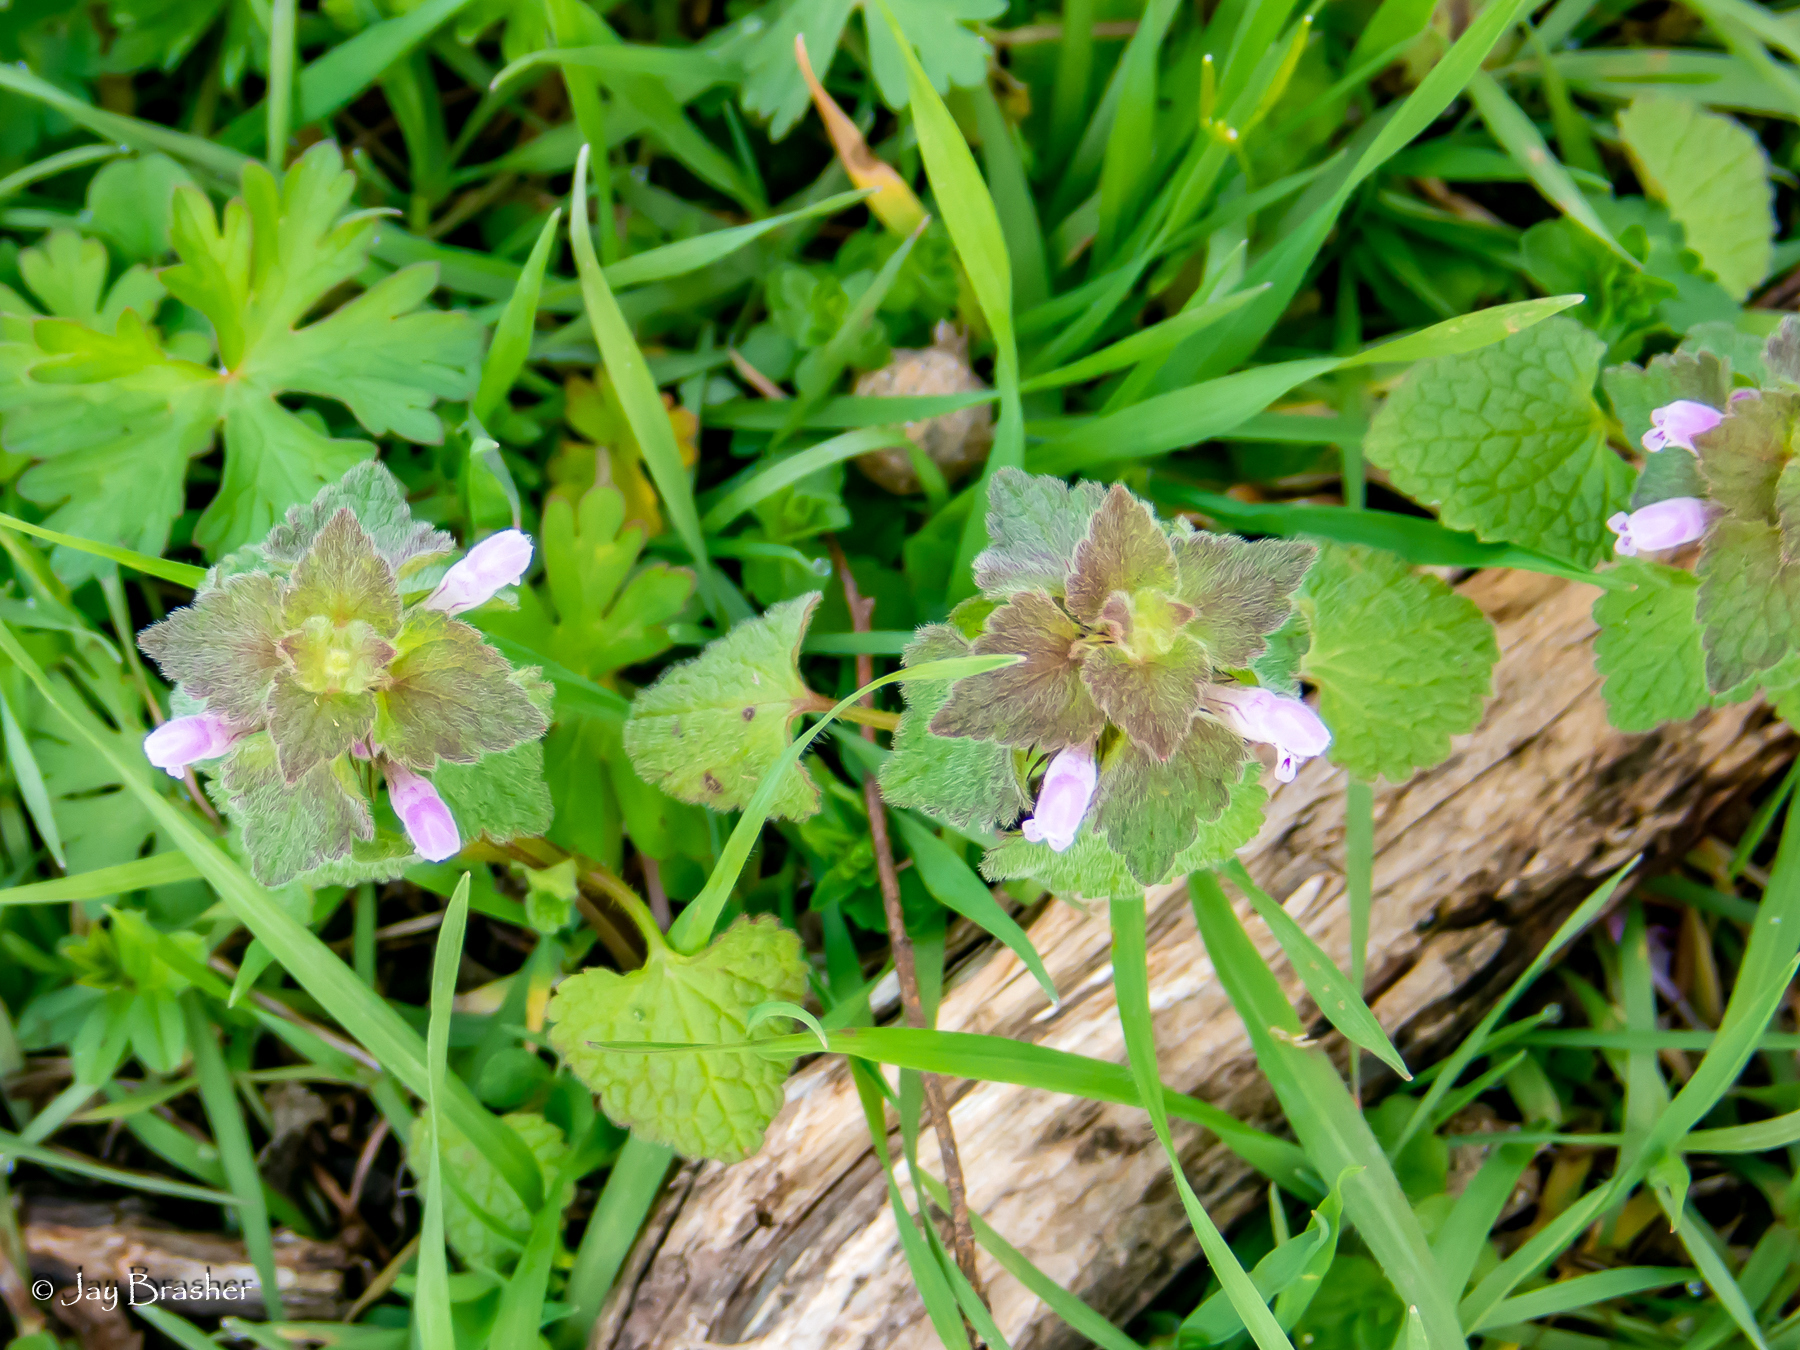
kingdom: Plantae
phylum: Tracheophyta
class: Magnoliopsida
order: Lamiales
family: Lamiaceae
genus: Lamium
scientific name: Lamium purpureum
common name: Red dead-nettle
